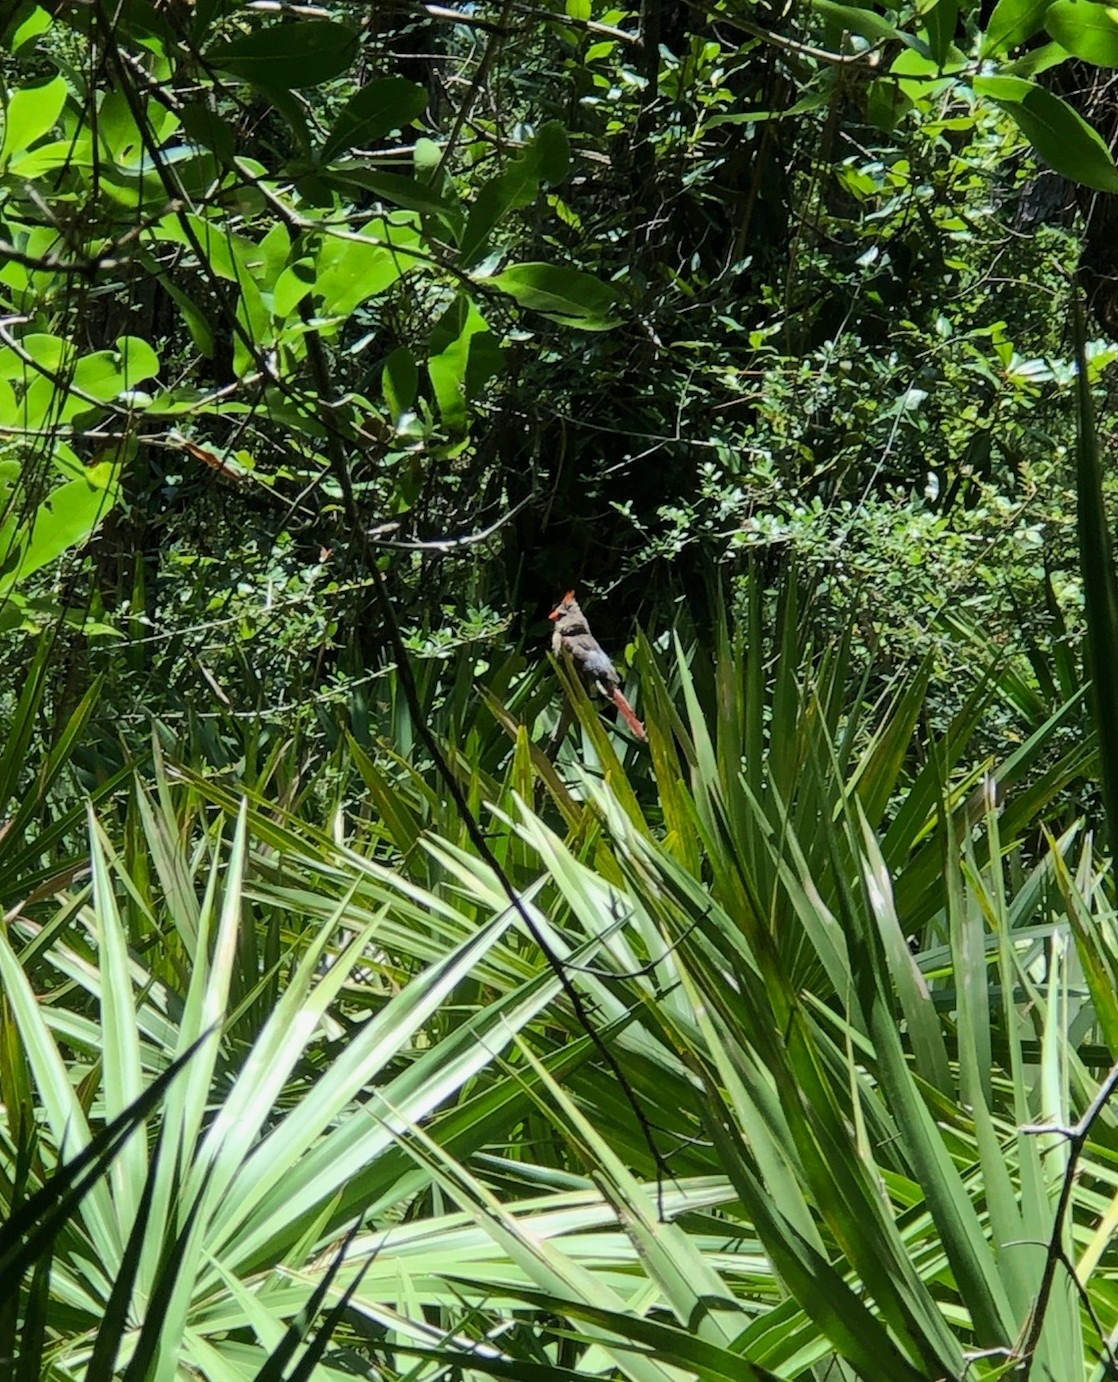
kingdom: Animalia
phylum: Chordata
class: Aves
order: Passeriformes
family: Cardinalidae
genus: Cardinalis
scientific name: Cardinalis cardinalis
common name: Northern cardinal
